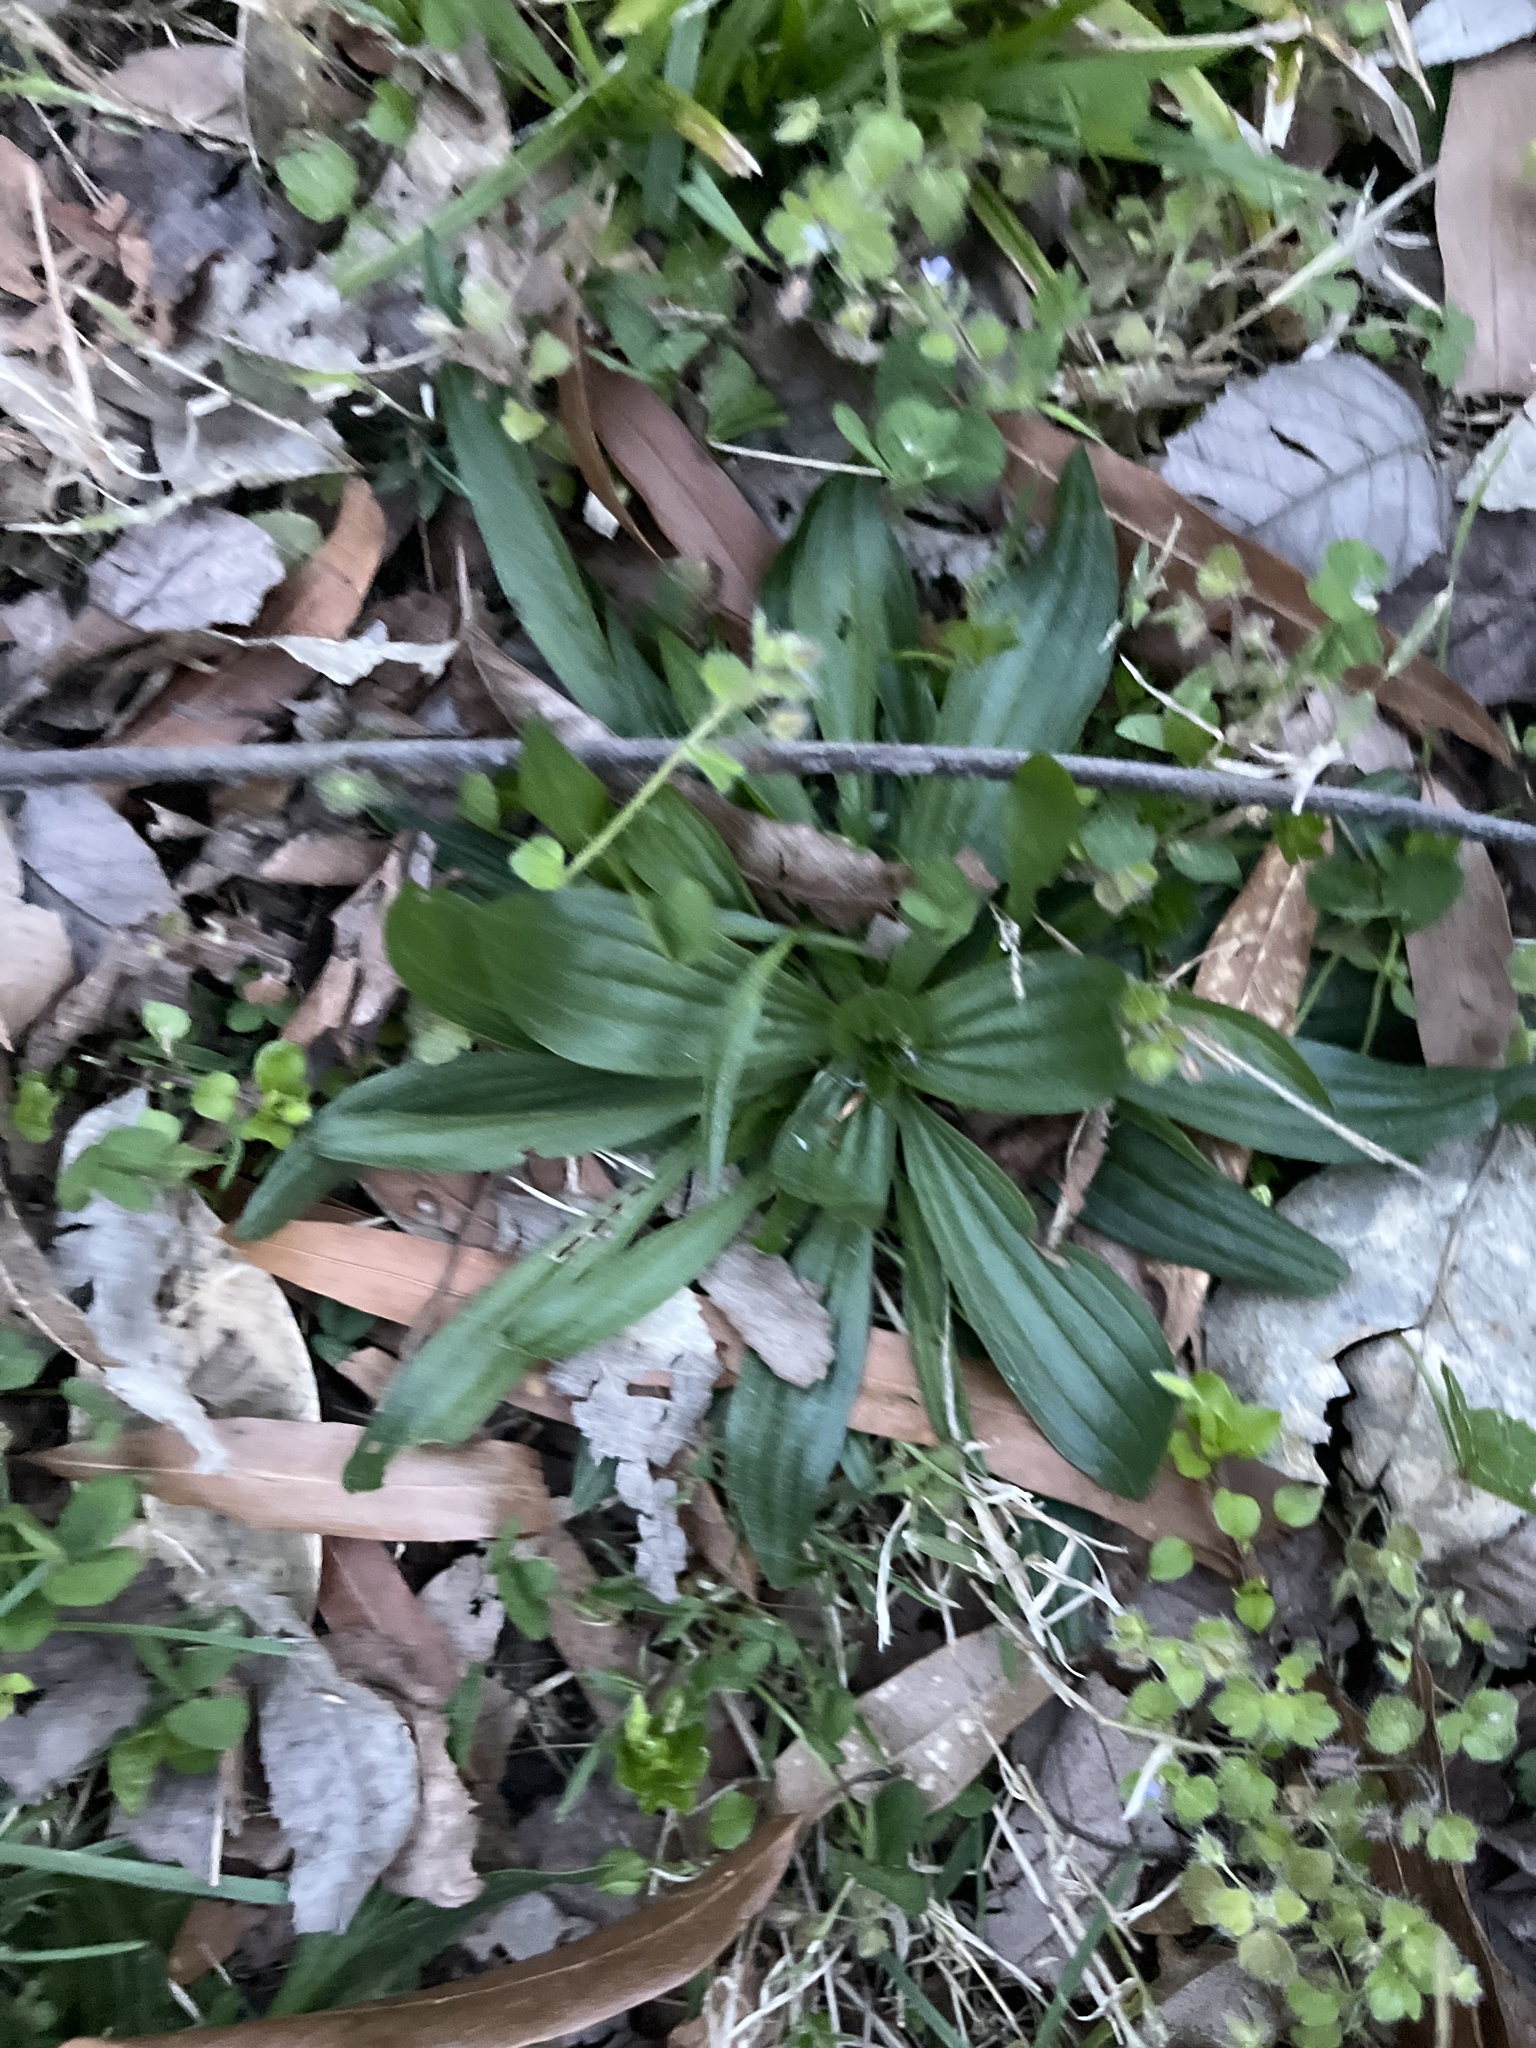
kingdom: Plantae
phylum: Tracheophyta
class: Magnoliopsida
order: Lamiales
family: Plantaginaceae
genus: Plantago
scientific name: Plantago lanceolata
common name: Ribwort plantain
